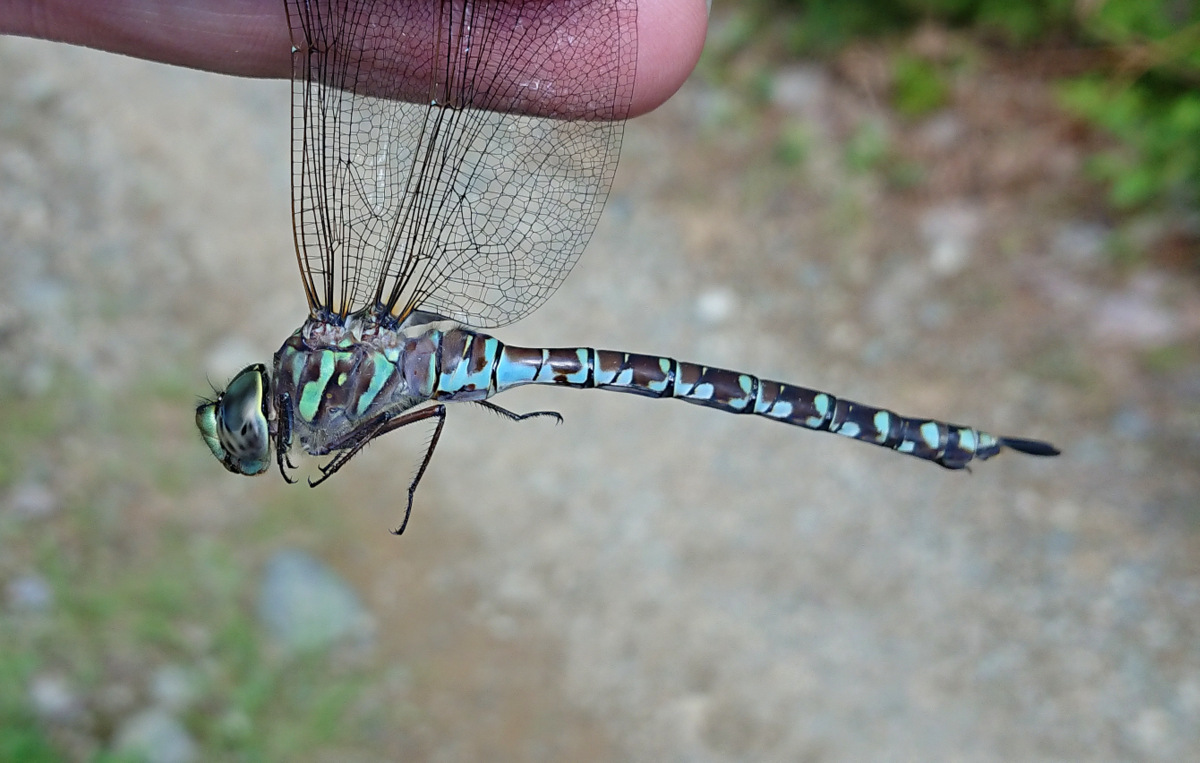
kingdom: Animalia
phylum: Arthropoda
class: Insecta
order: Odonata
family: Aeshnidae
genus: Aeshna
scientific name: Aeshna canadensis
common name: Canada darner
